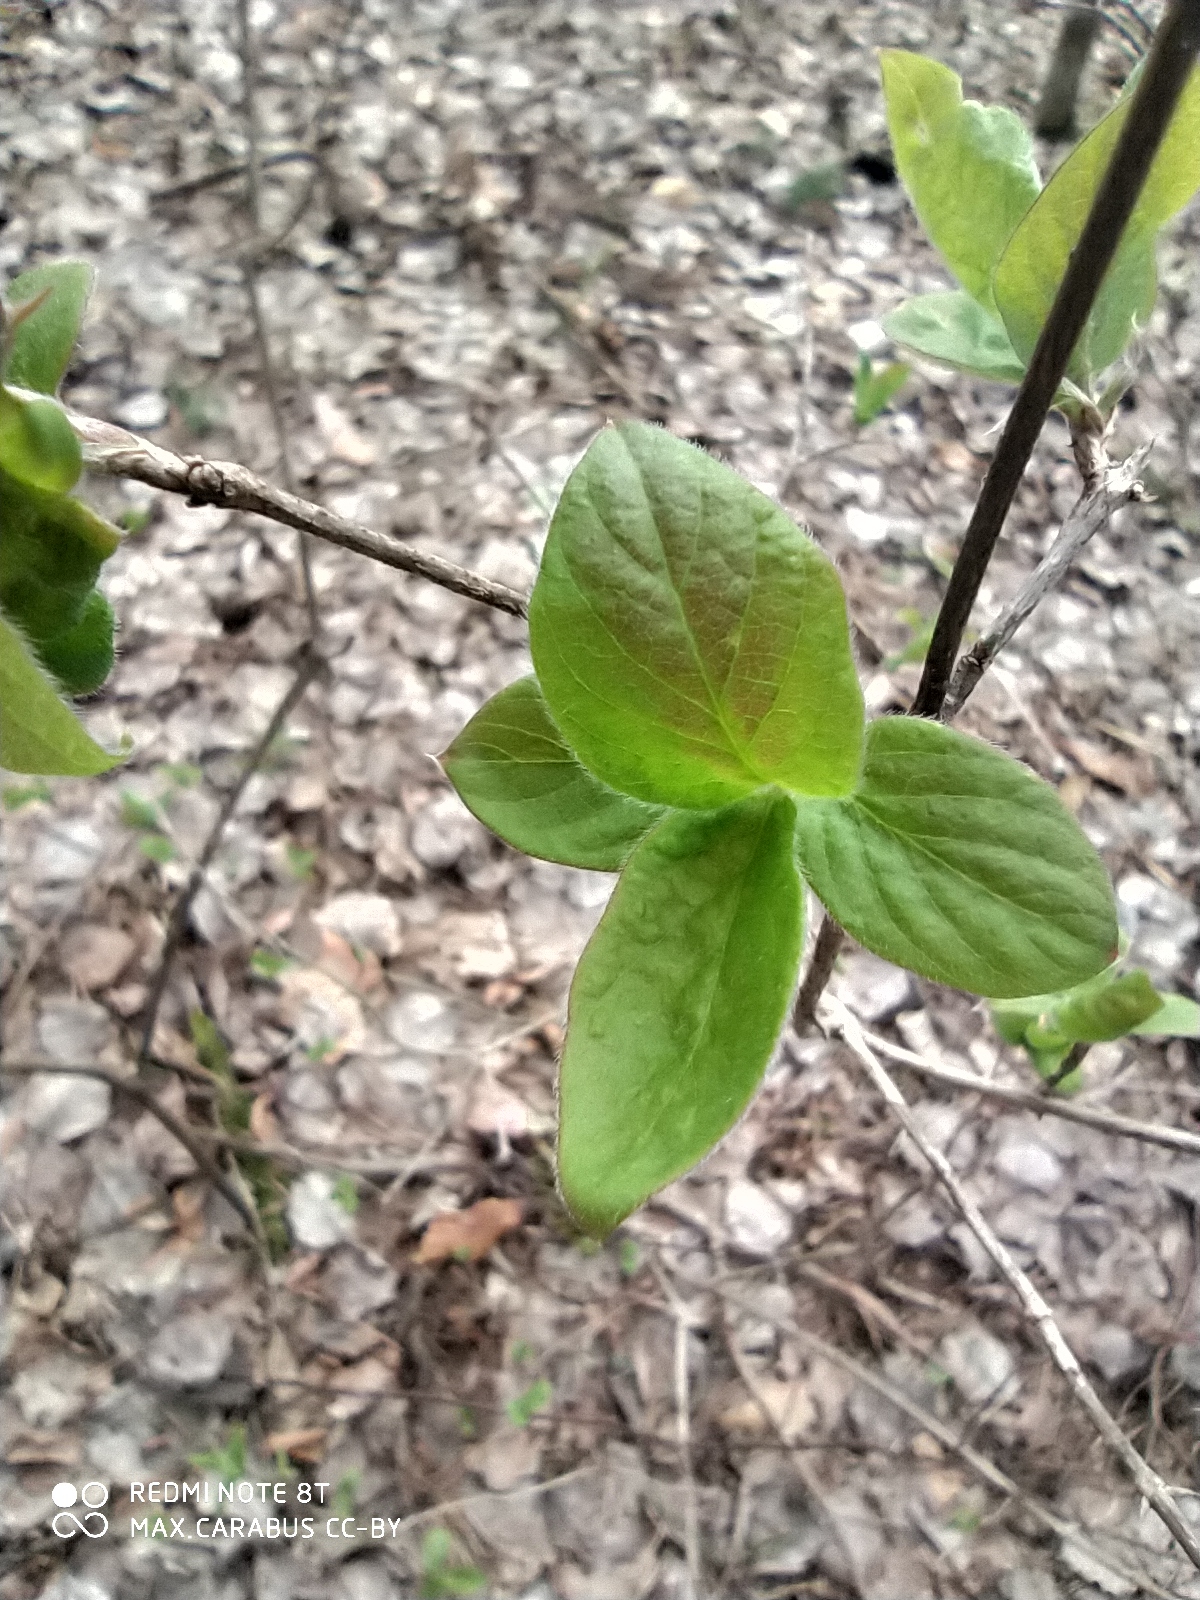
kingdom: Plantae
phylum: Tracheophyta
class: Magnoliopsida
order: Dipsacales
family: Caprifoliaceae
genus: Lonicera
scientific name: Lonicera xylosteum
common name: Fly honeysuckle
